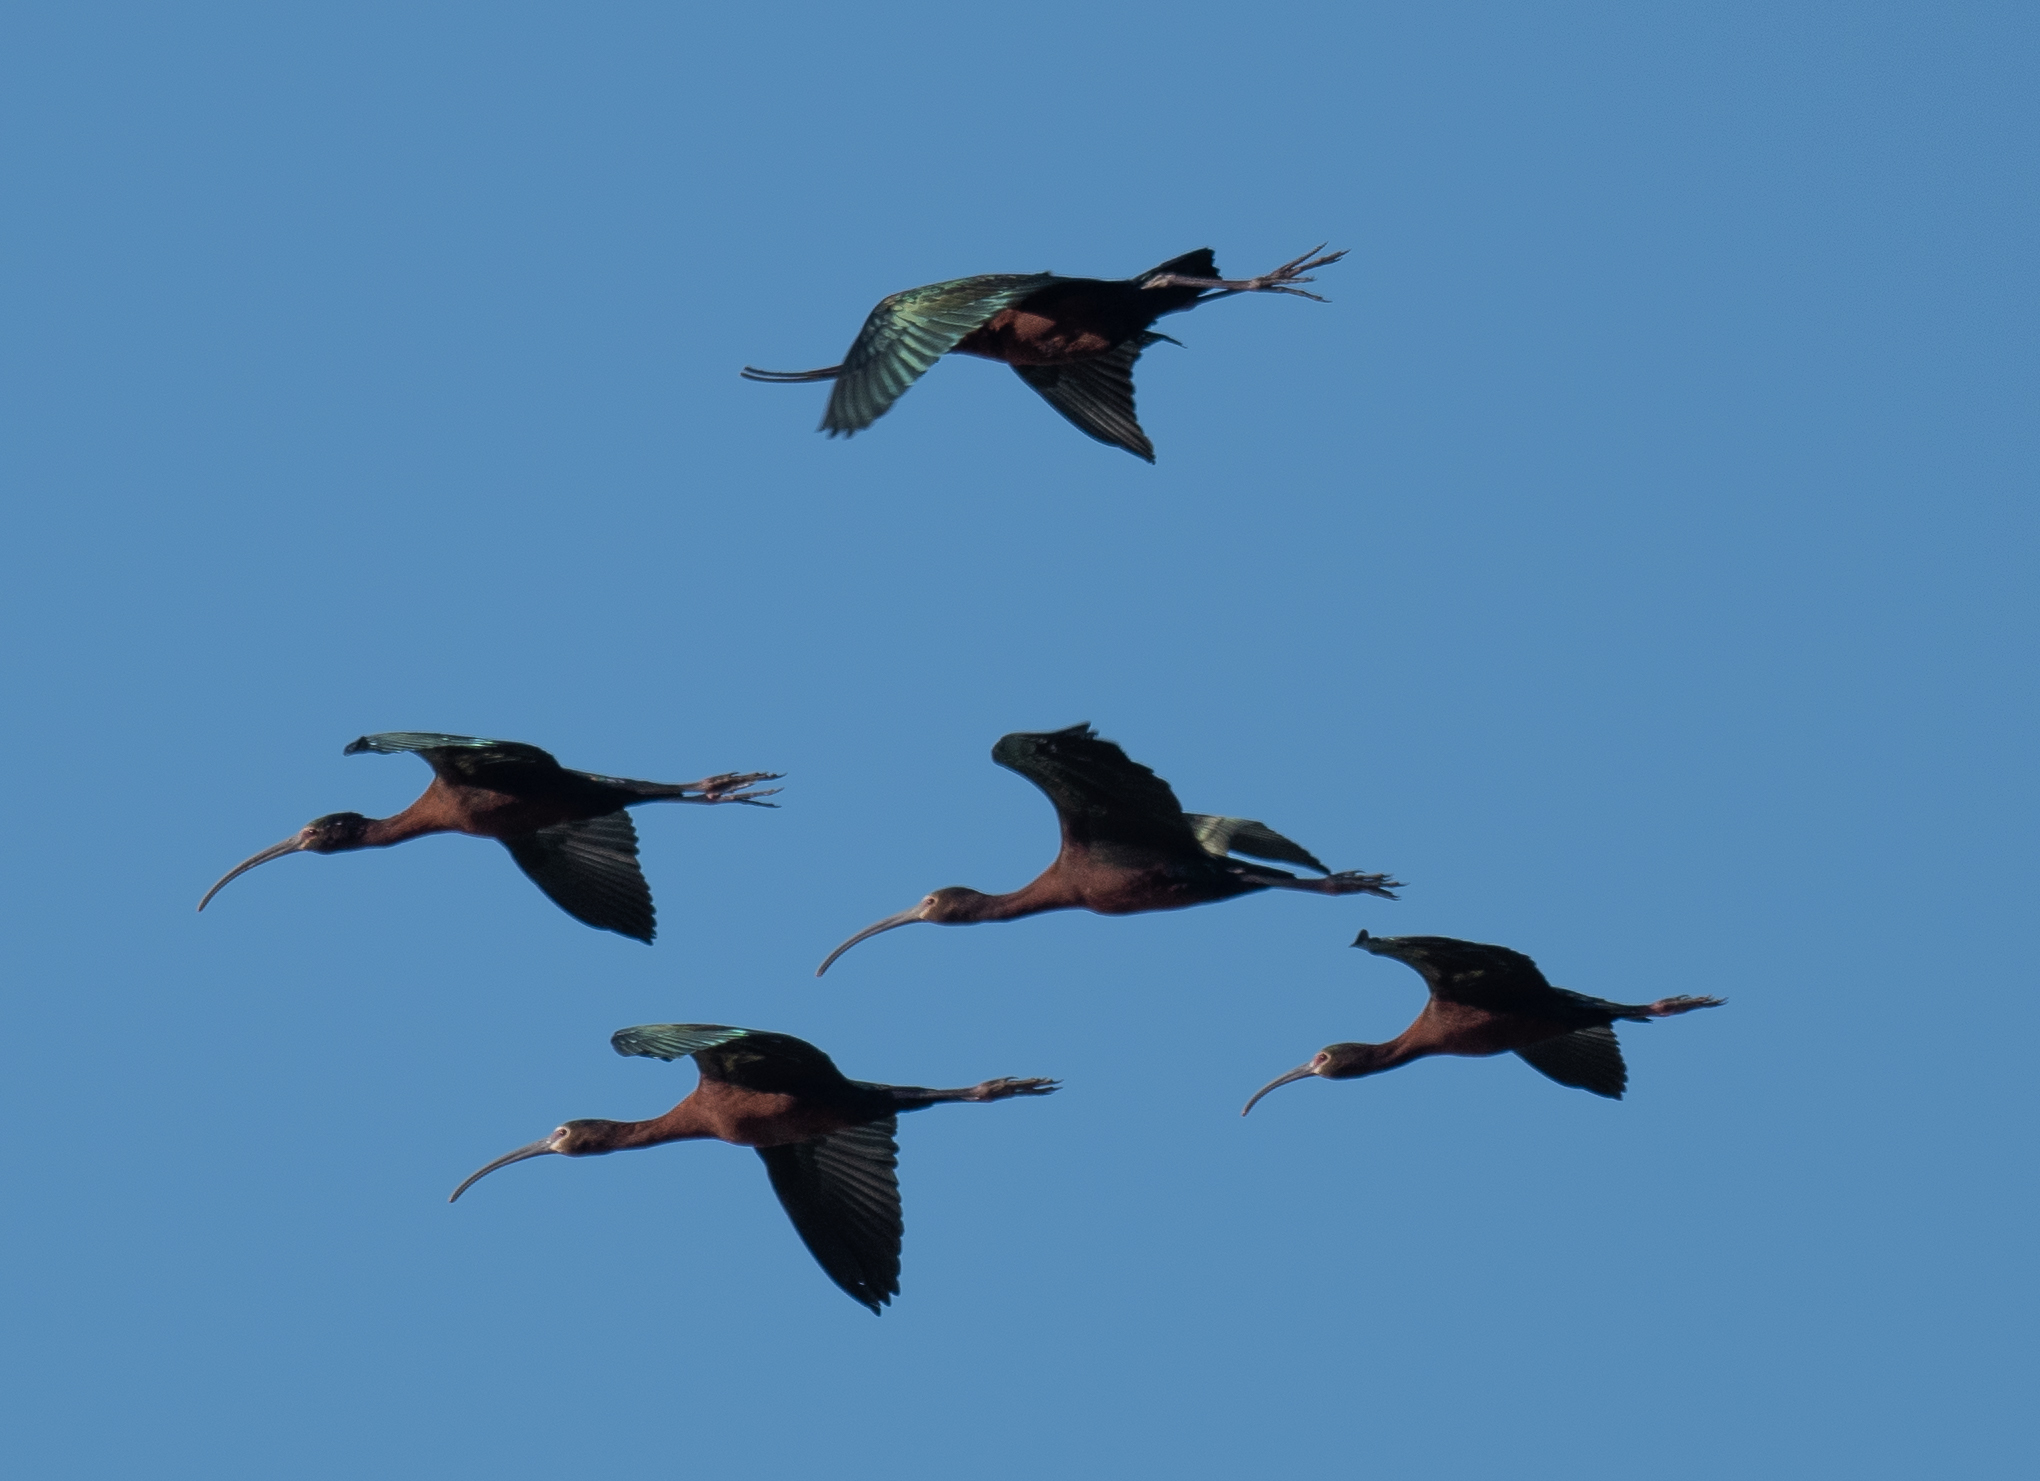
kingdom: Animalia
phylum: Chordata
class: Aves
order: Pelecaniformes
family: Threskiornithidae
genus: Plegadis
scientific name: Plegadis chihi
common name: White-faced ibis
